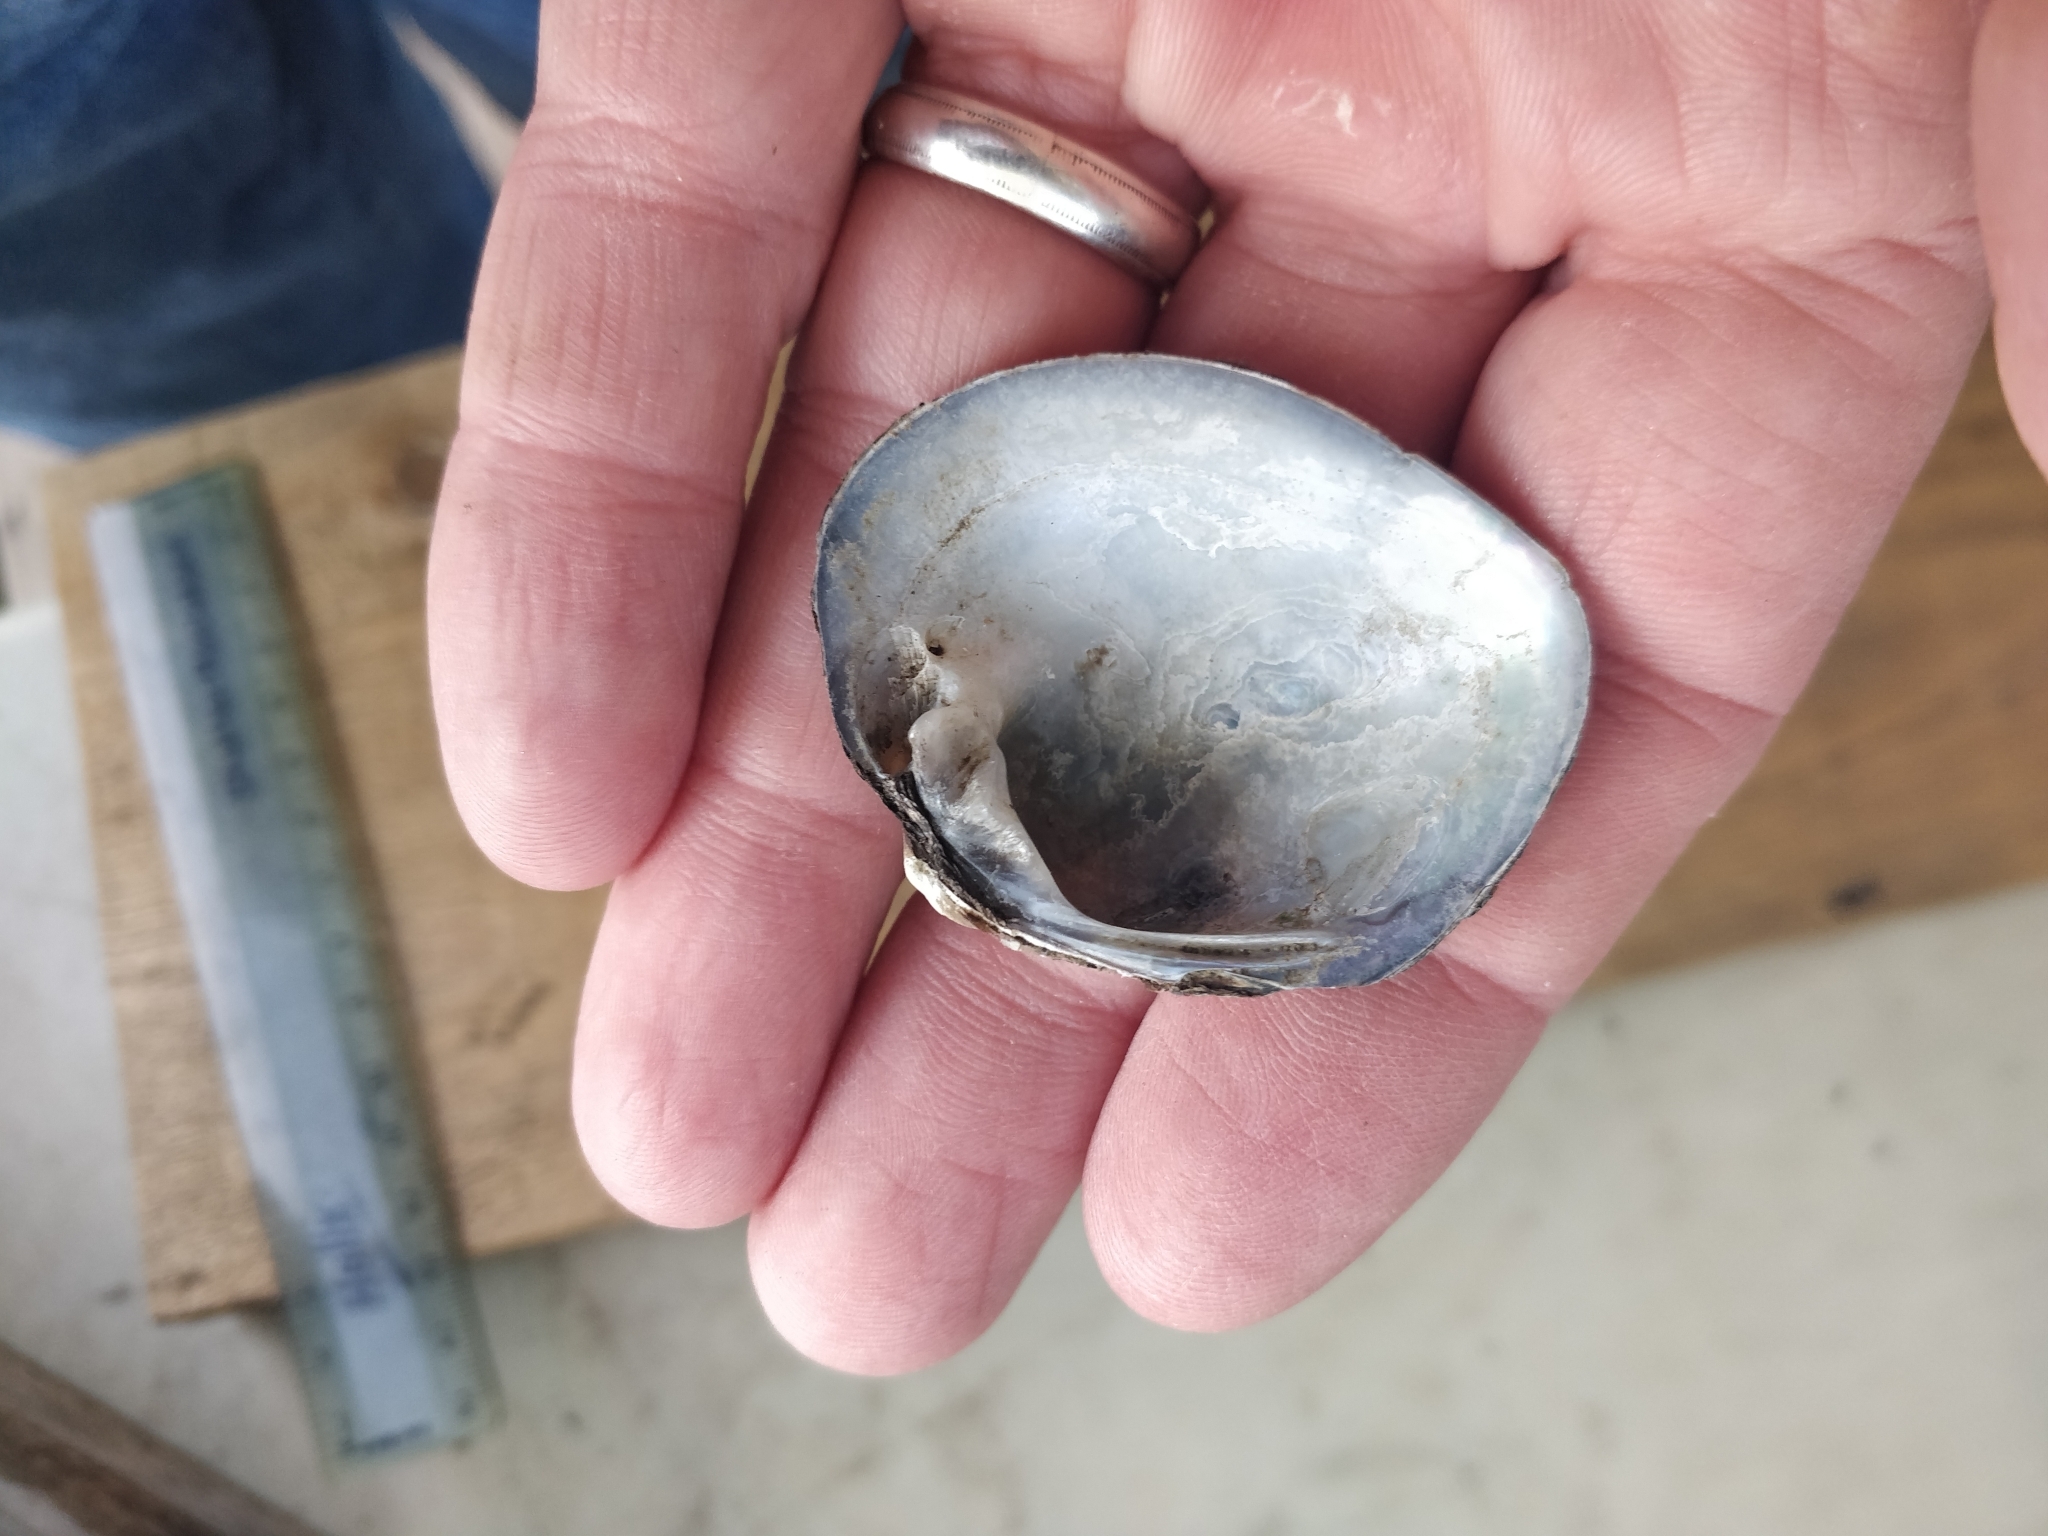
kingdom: Animalia
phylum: Mollusca
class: Bivalvia
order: Unionida
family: Unionidae
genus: Cyclonaias
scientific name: Cyclonaias pustulosa
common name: Pimpleback
